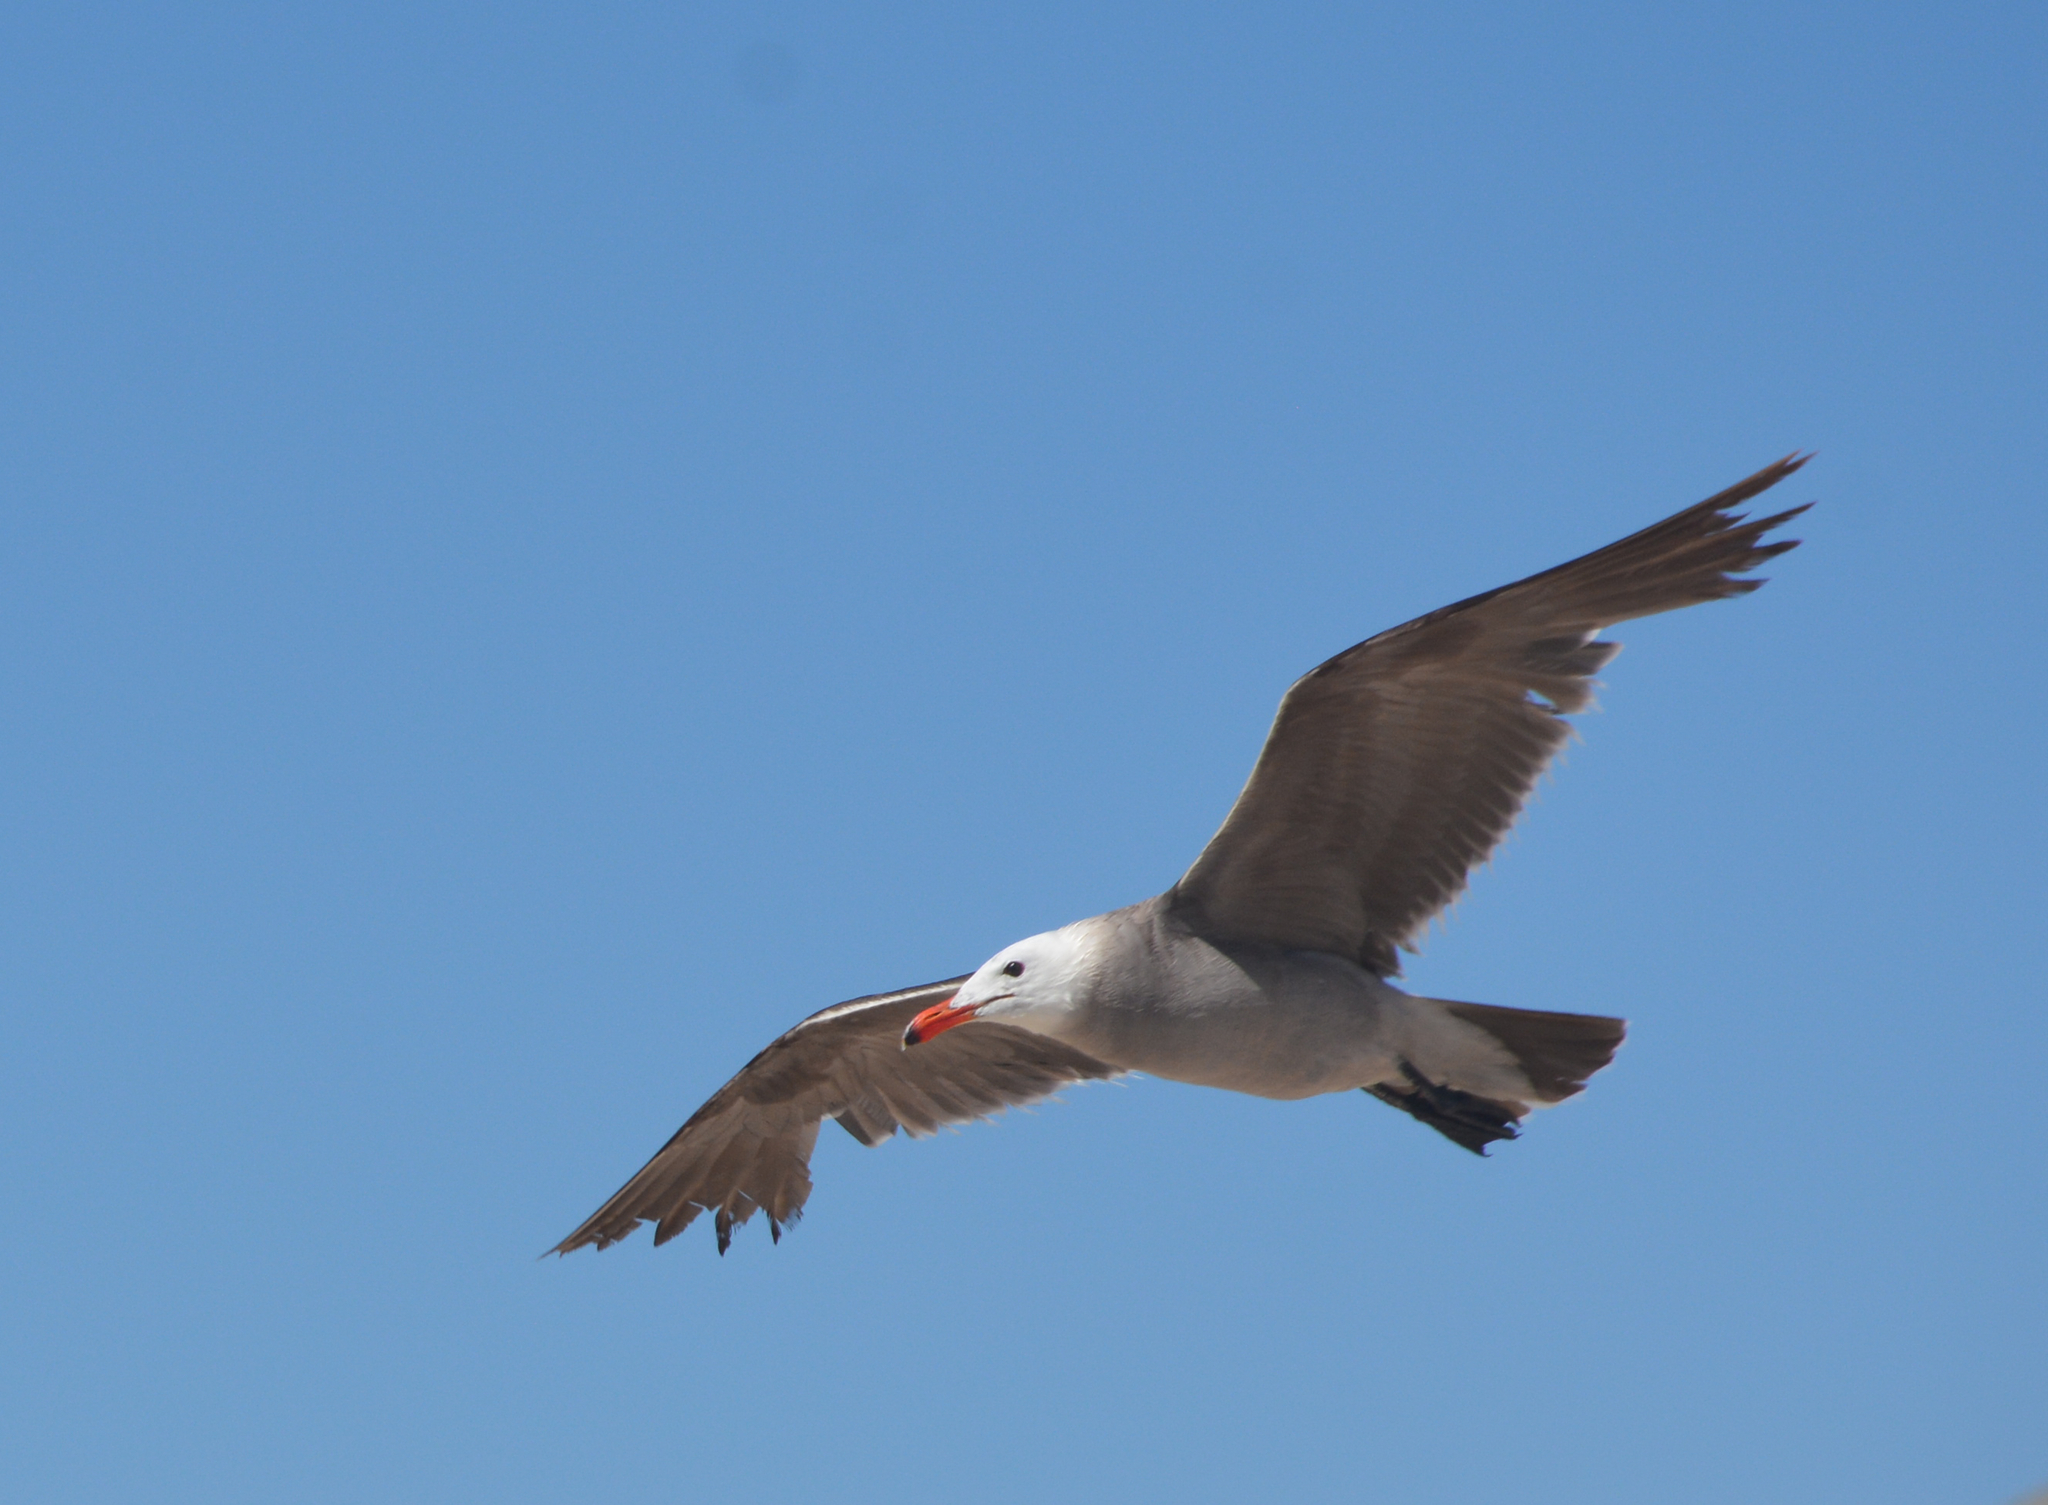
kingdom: Animalia
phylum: Chordata
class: Aves
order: Charadriiformes
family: Laridae
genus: Larus
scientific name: Larus heermanni
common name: Heermann's gull
